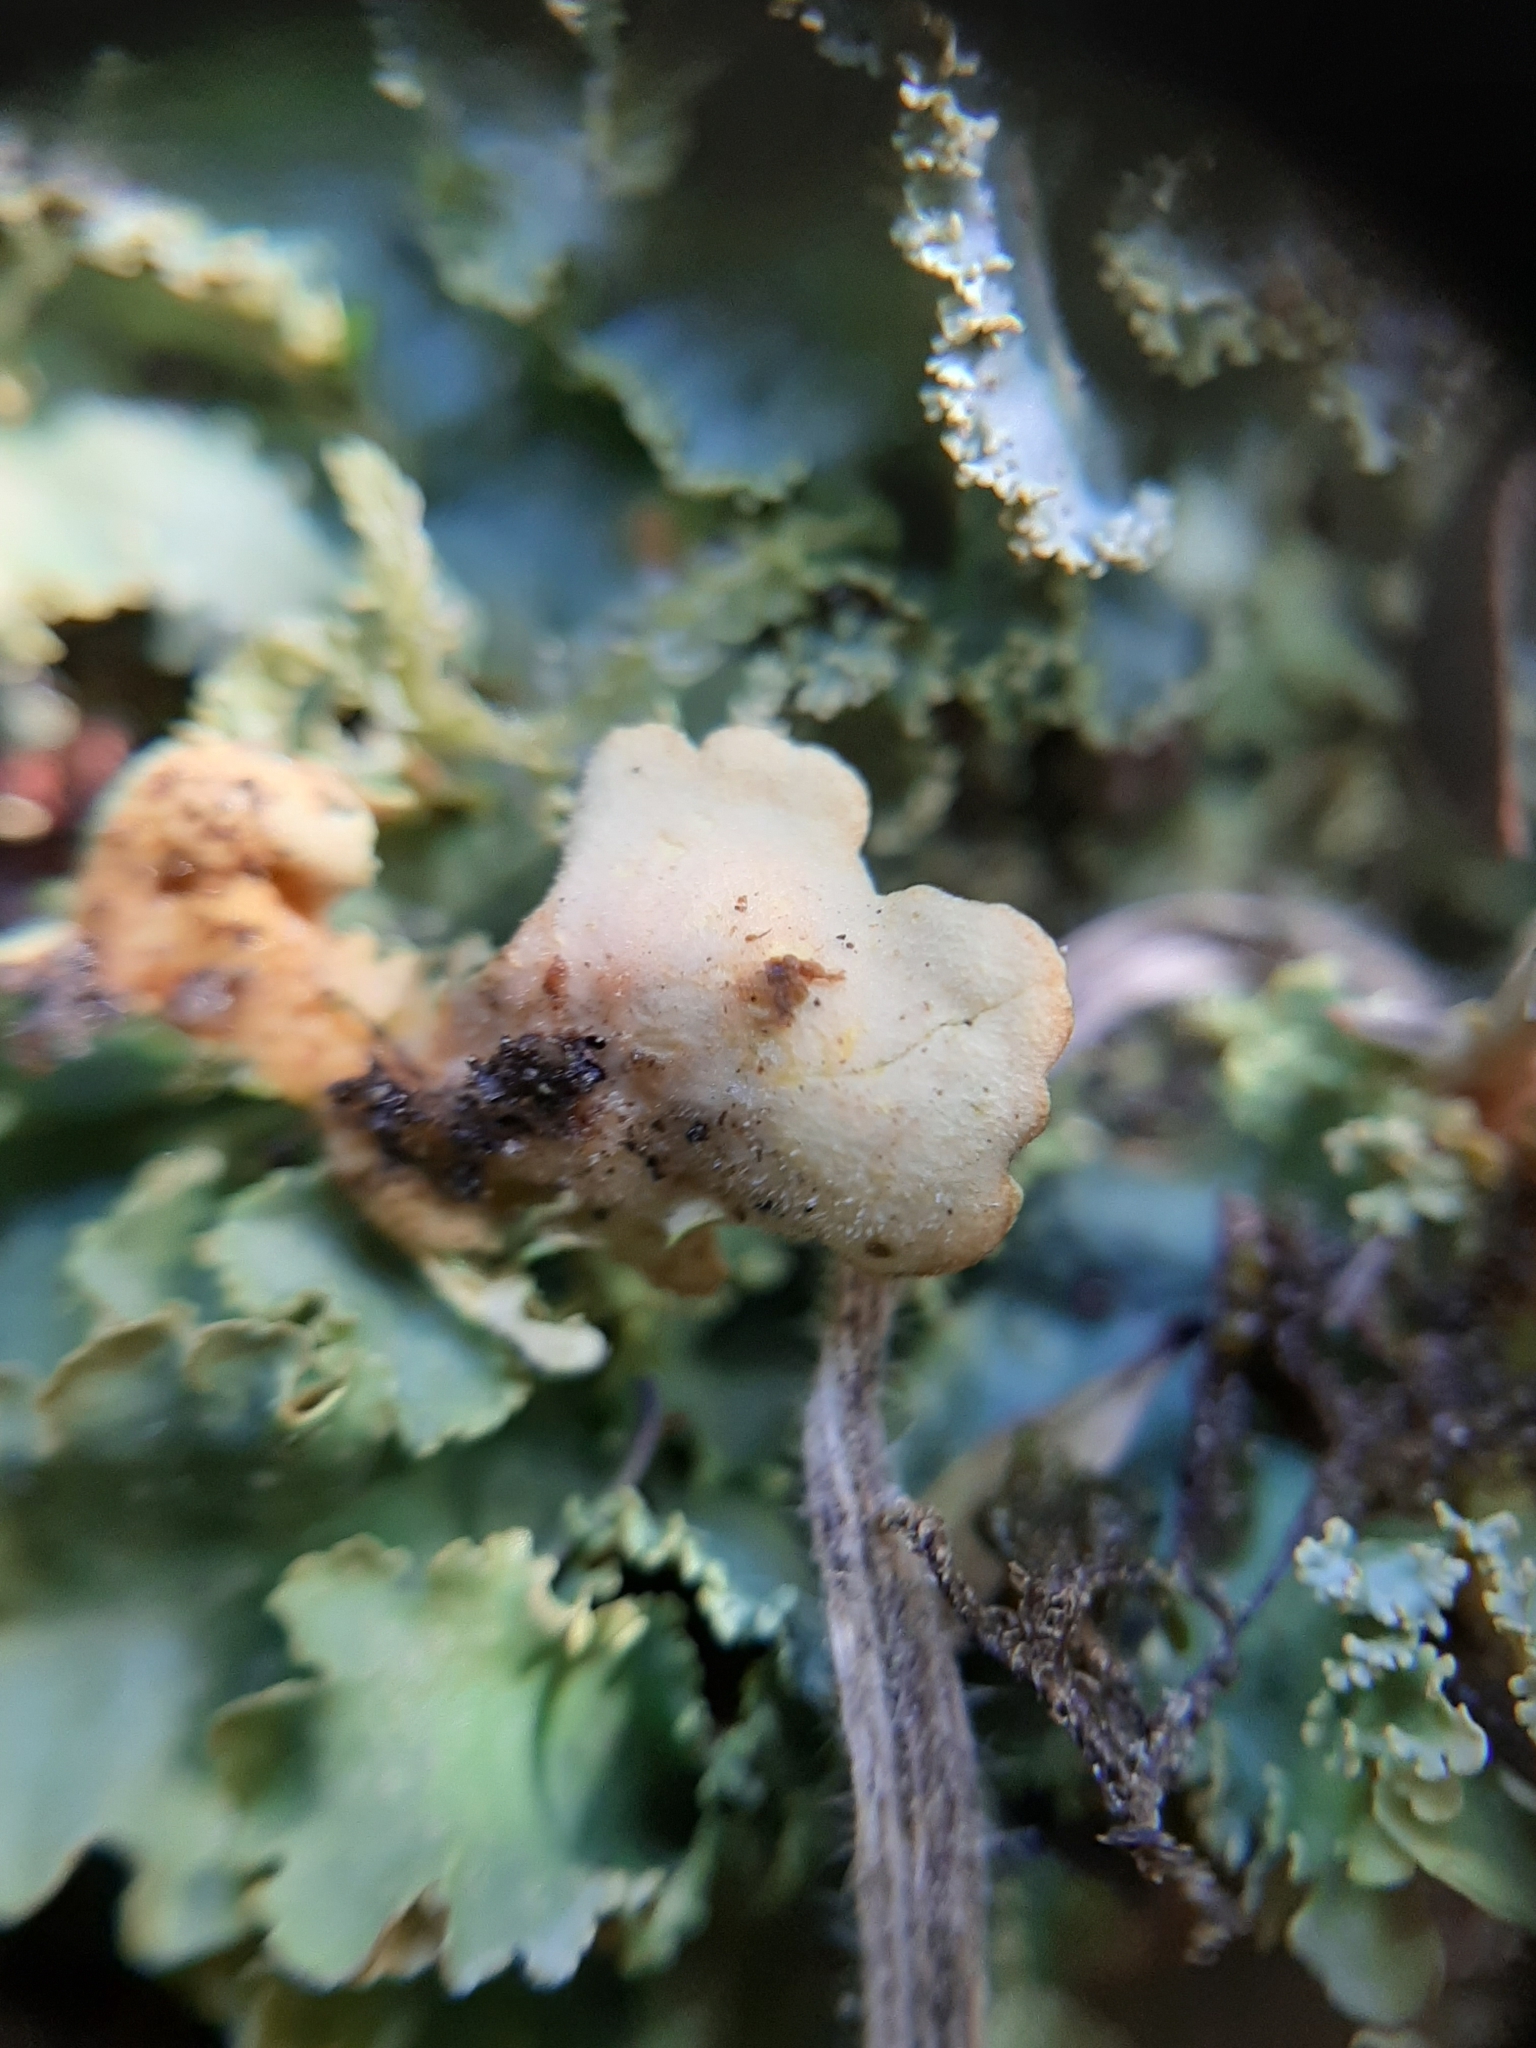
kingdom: Fungi
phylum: Ascomycota
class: Lecanoromycetes
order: Peltigerales
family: Lobariaceae
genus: Podostictina
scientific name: Podostictina pickeringii
